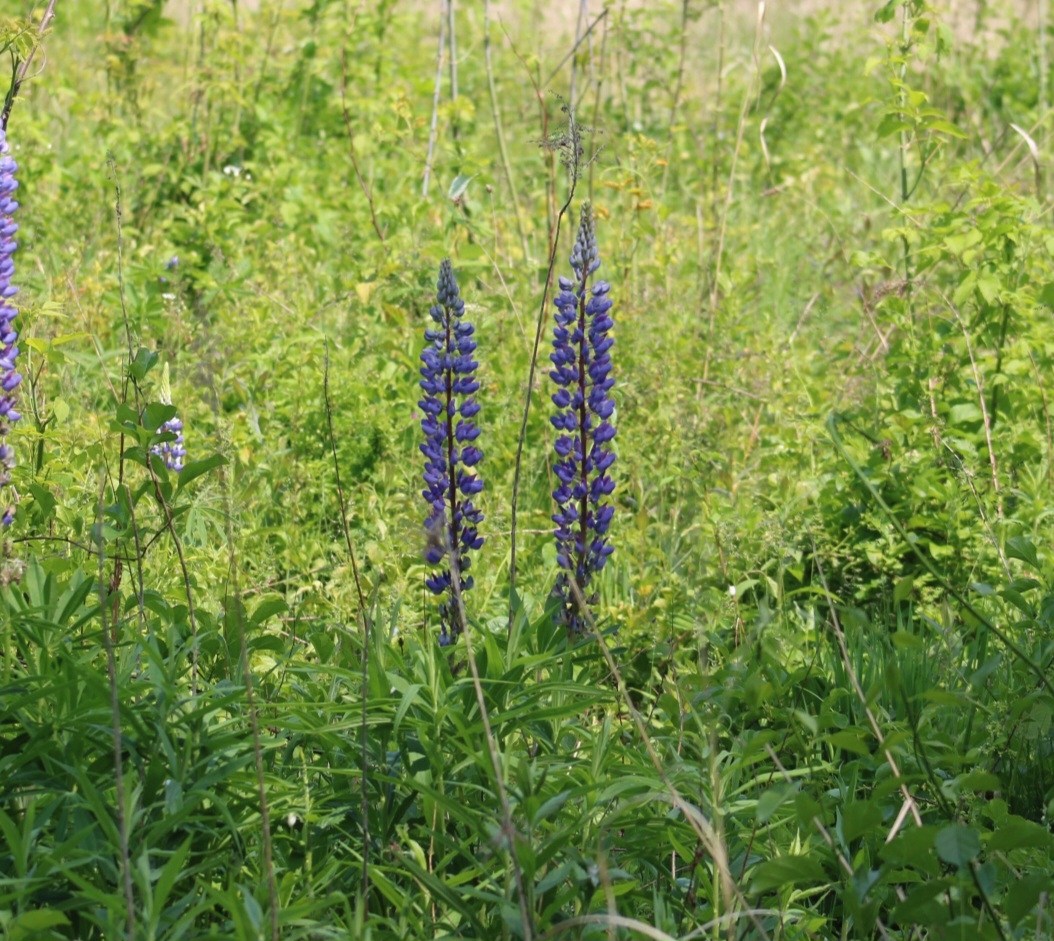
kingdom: Plantae
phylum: Tracheophyta
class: Magnoliopsida
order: Fabales
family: Fabaceae
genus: Lupinus
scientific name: Lupinus polyphyllus
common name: Garden lupin
